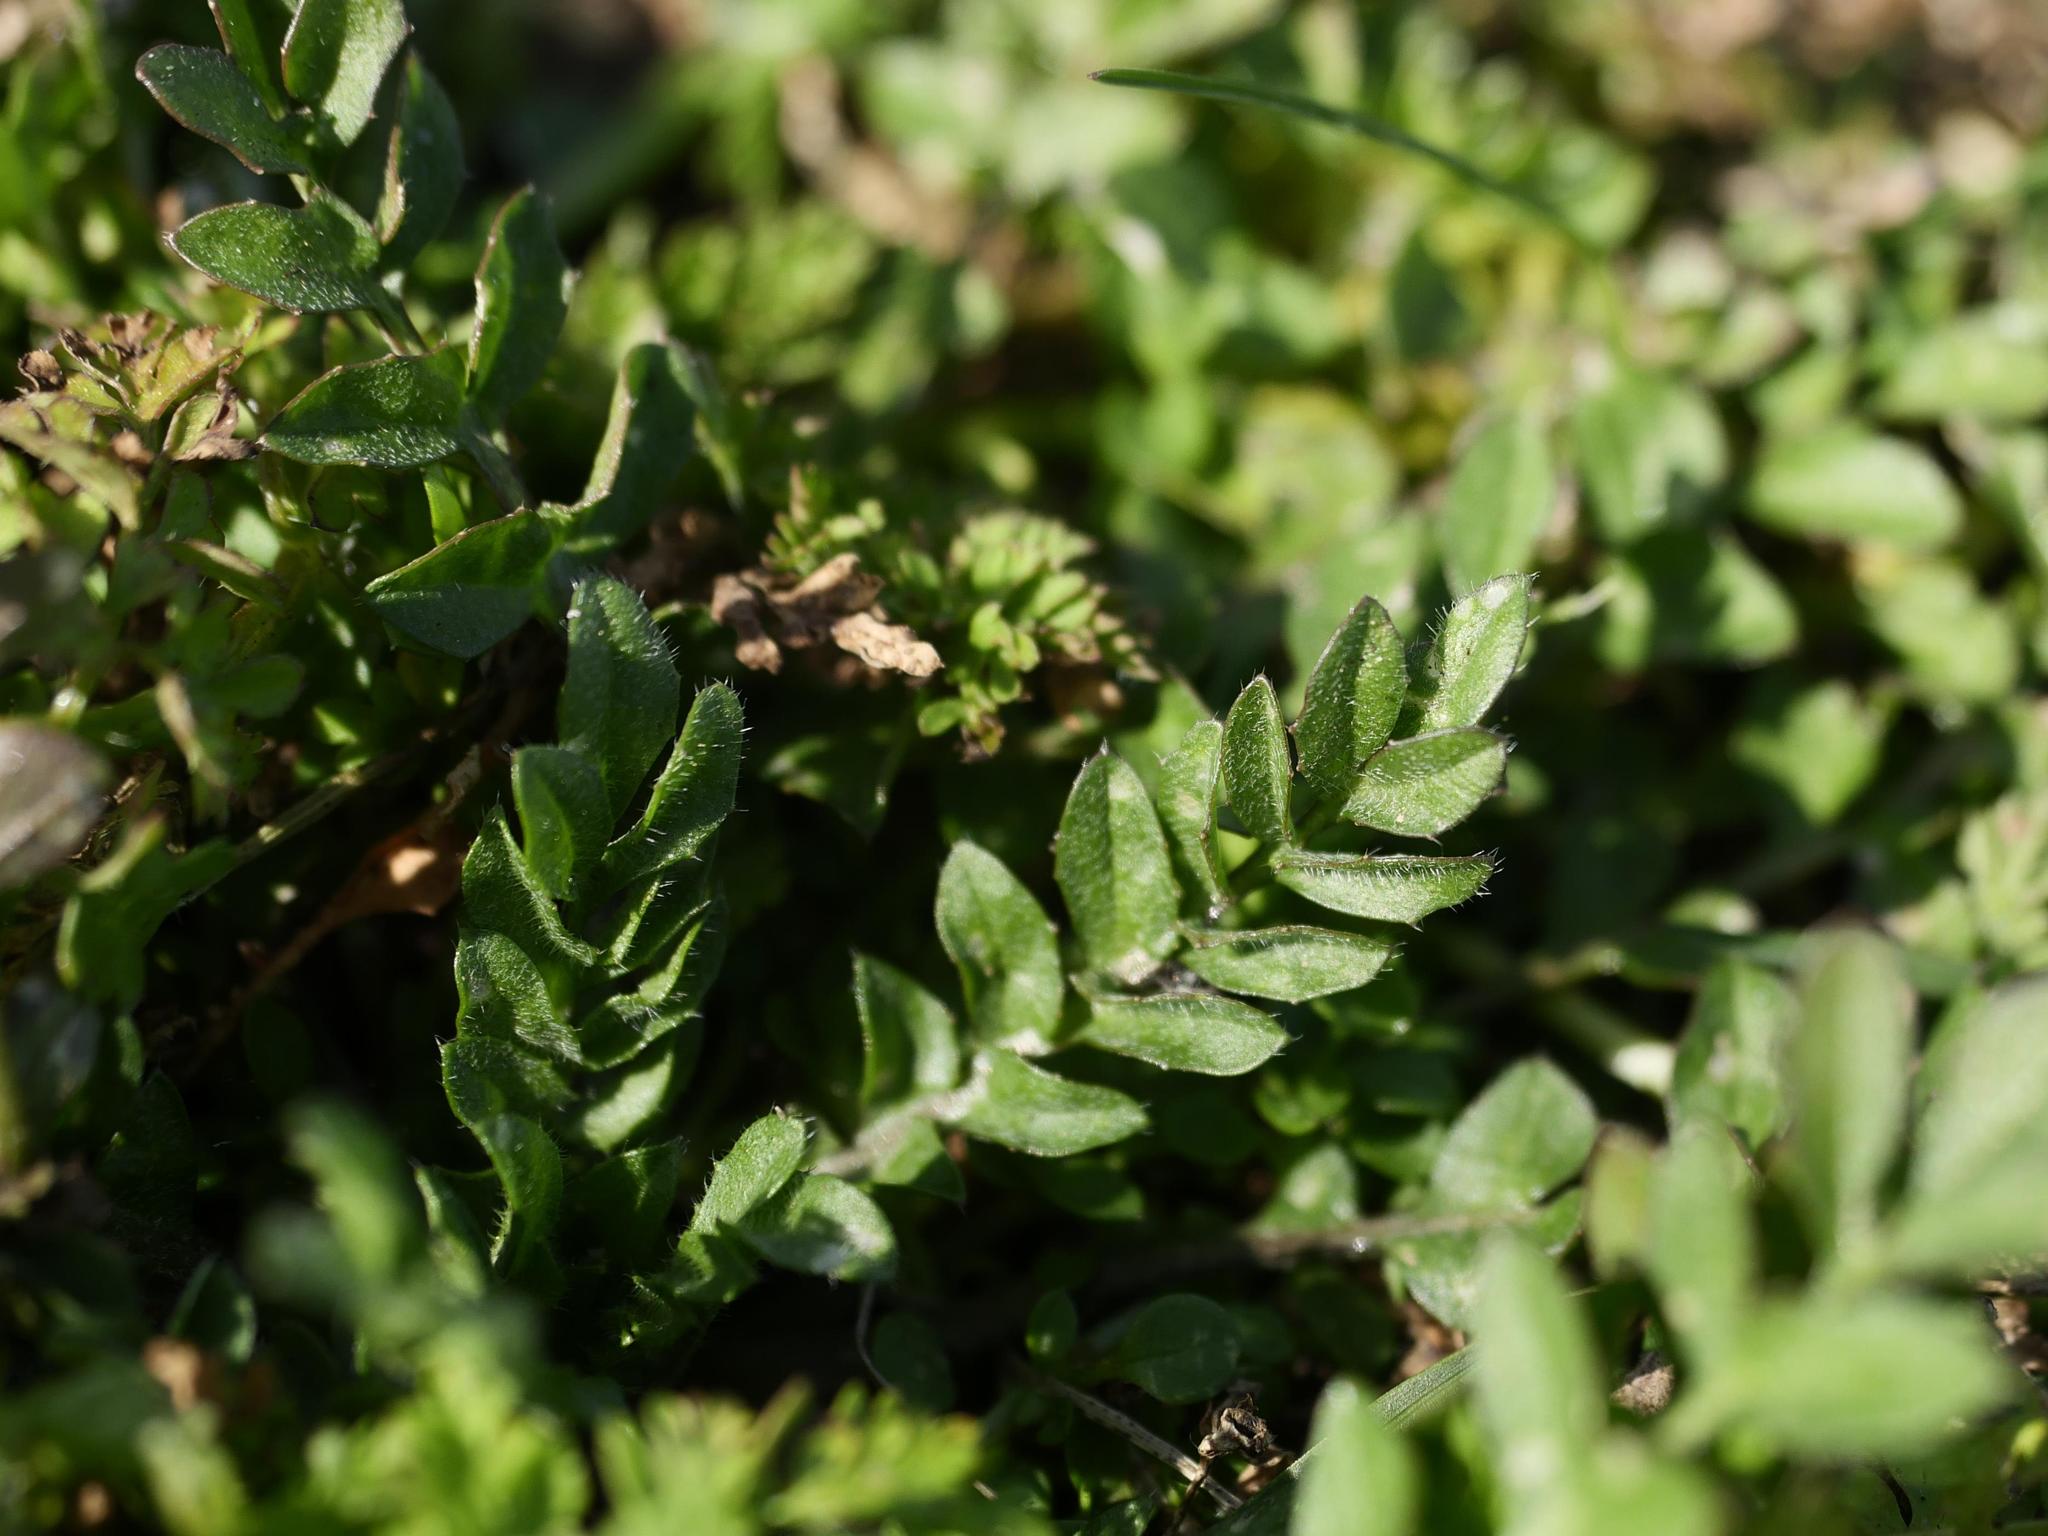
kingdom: Plantae
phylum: Tracheophyta
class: Magnoliopsida
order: Brassicales
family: Brassicaceae
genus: Capsella
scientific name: Capsella bursa-pastoris
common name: Shepherd's purse
